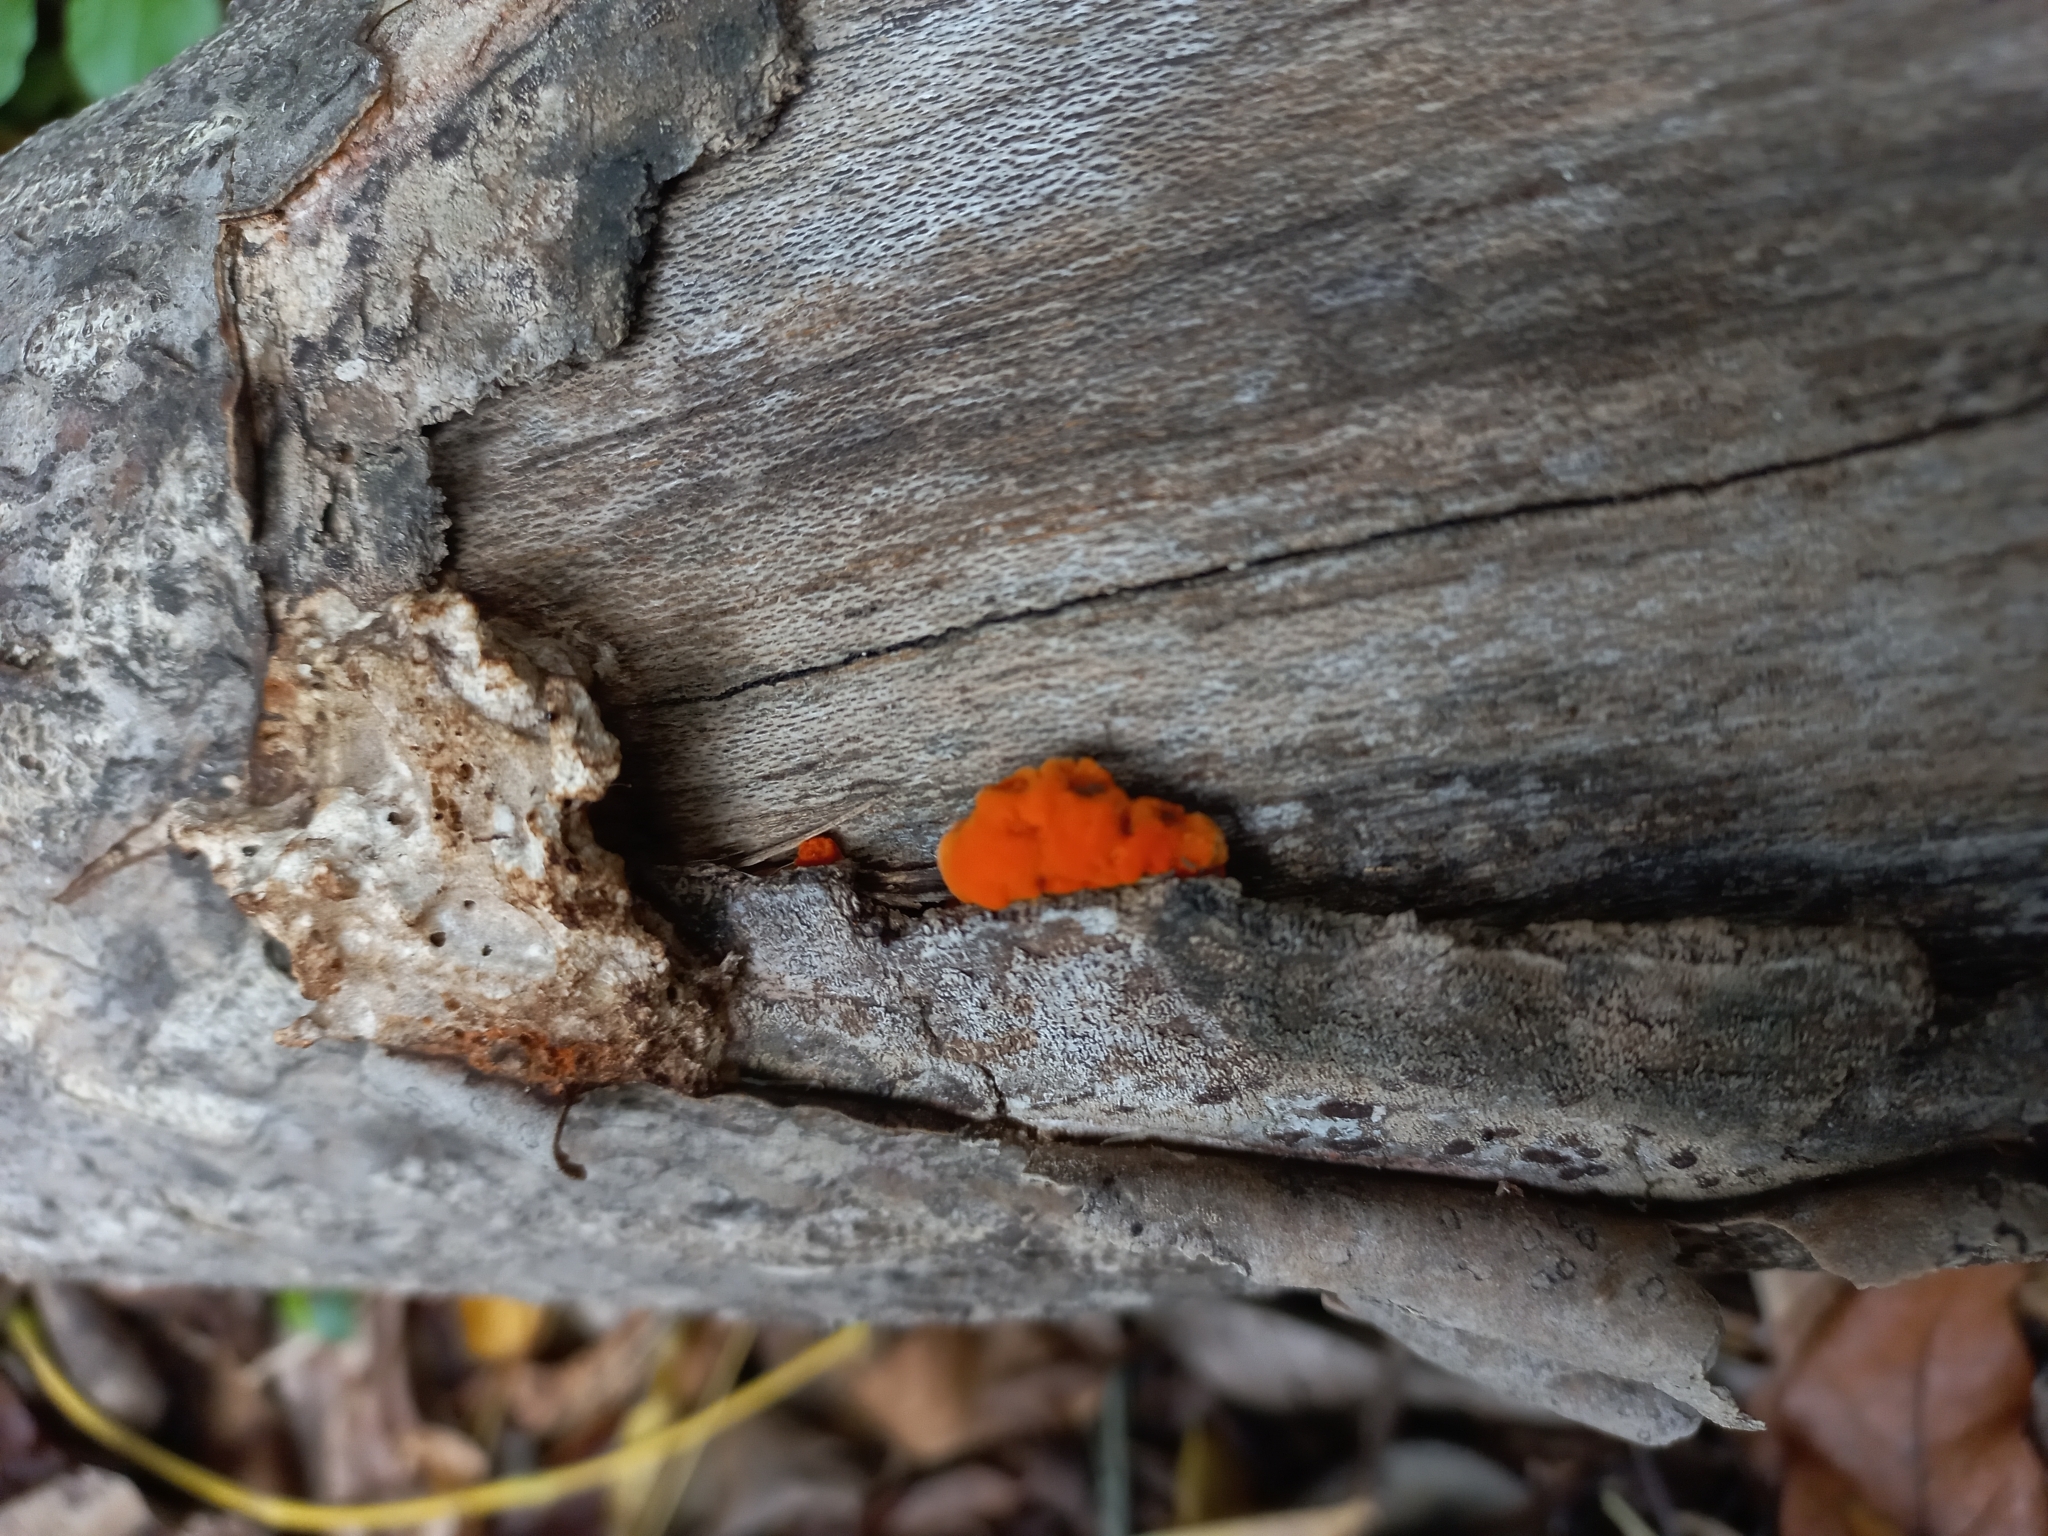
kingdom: Fungi
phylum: Basidiomycota
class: Agaricomycetes
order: Polyporales
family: Polyporaceae
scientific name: Polyporaceae
